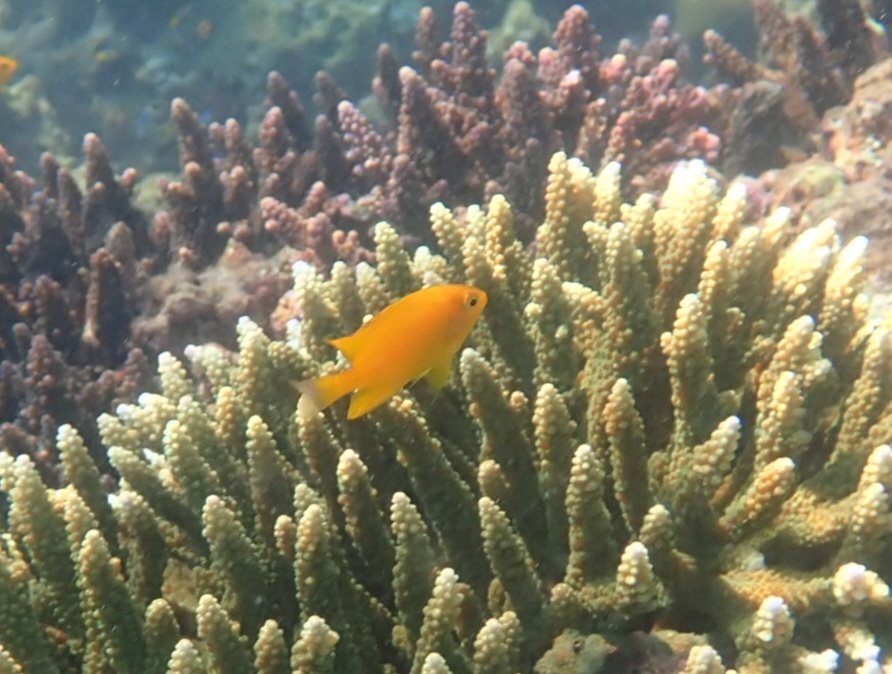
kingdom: Animalia
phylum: Chordata
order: Perciformes
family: Pomacentridae
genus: Pomacentrus
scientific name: Pomacentrus moluccensis
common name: Lemon damsel
